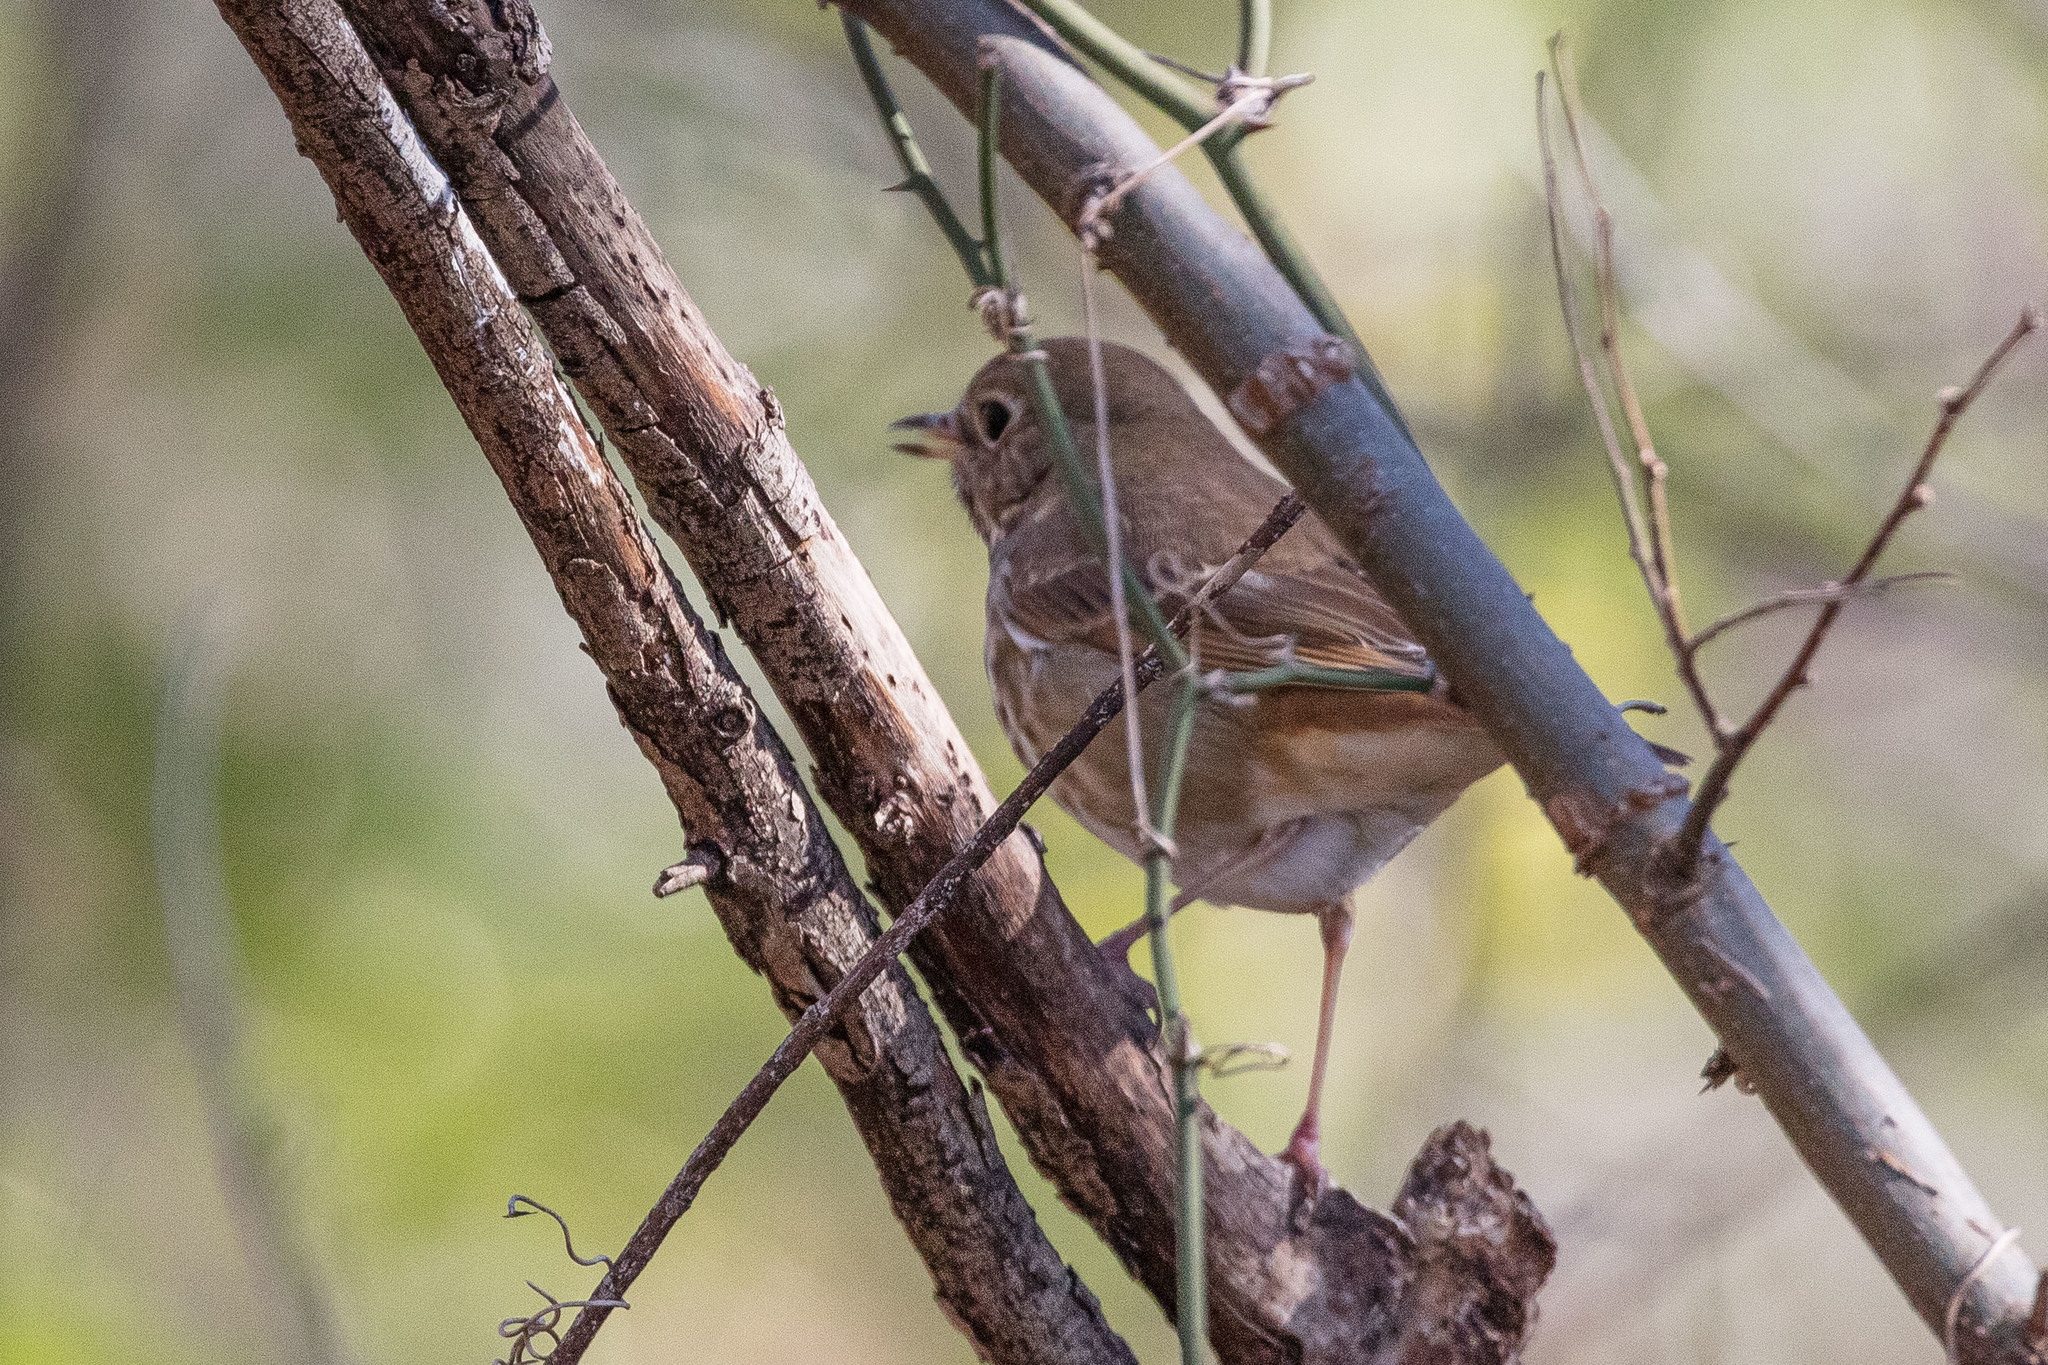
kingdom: Animalia
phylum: Chordata
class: Aves
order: Passeriformes
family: Turdidae
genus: Catharus
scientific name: Catharus guttatus
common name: Hermit thrush
